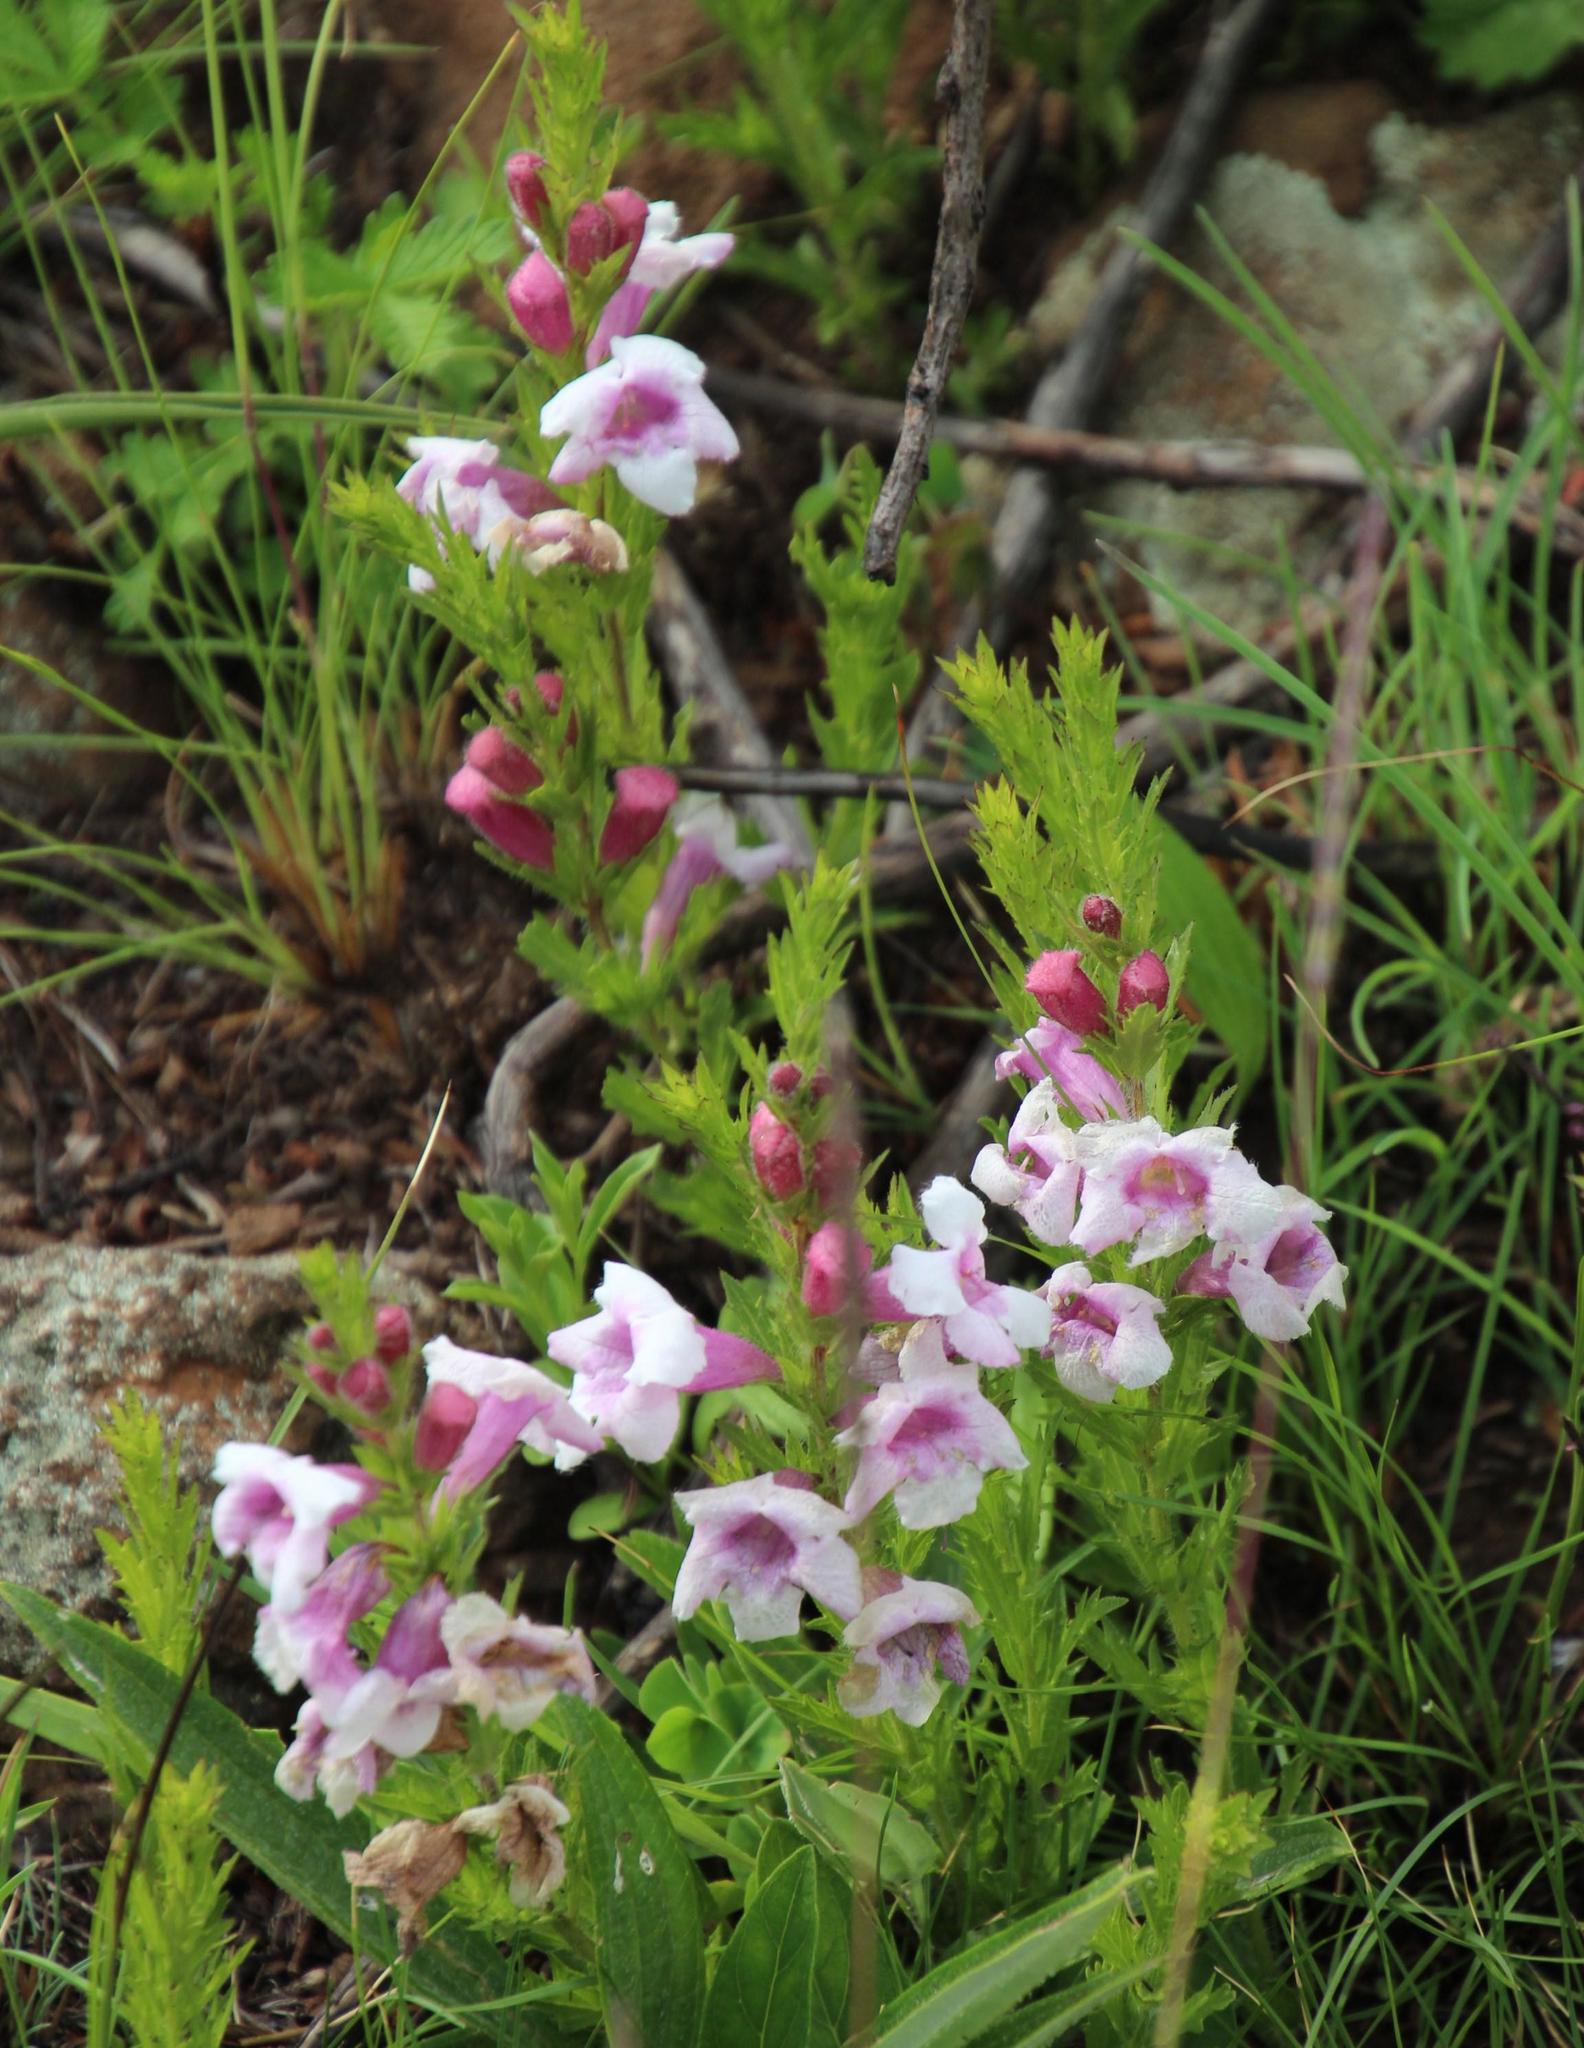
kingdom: Plantae
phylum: Tracheophyta
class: Magnoliopsida
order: Lamiales
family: Orobanchaceae
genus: Graderia
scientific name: Graderia subintegra
